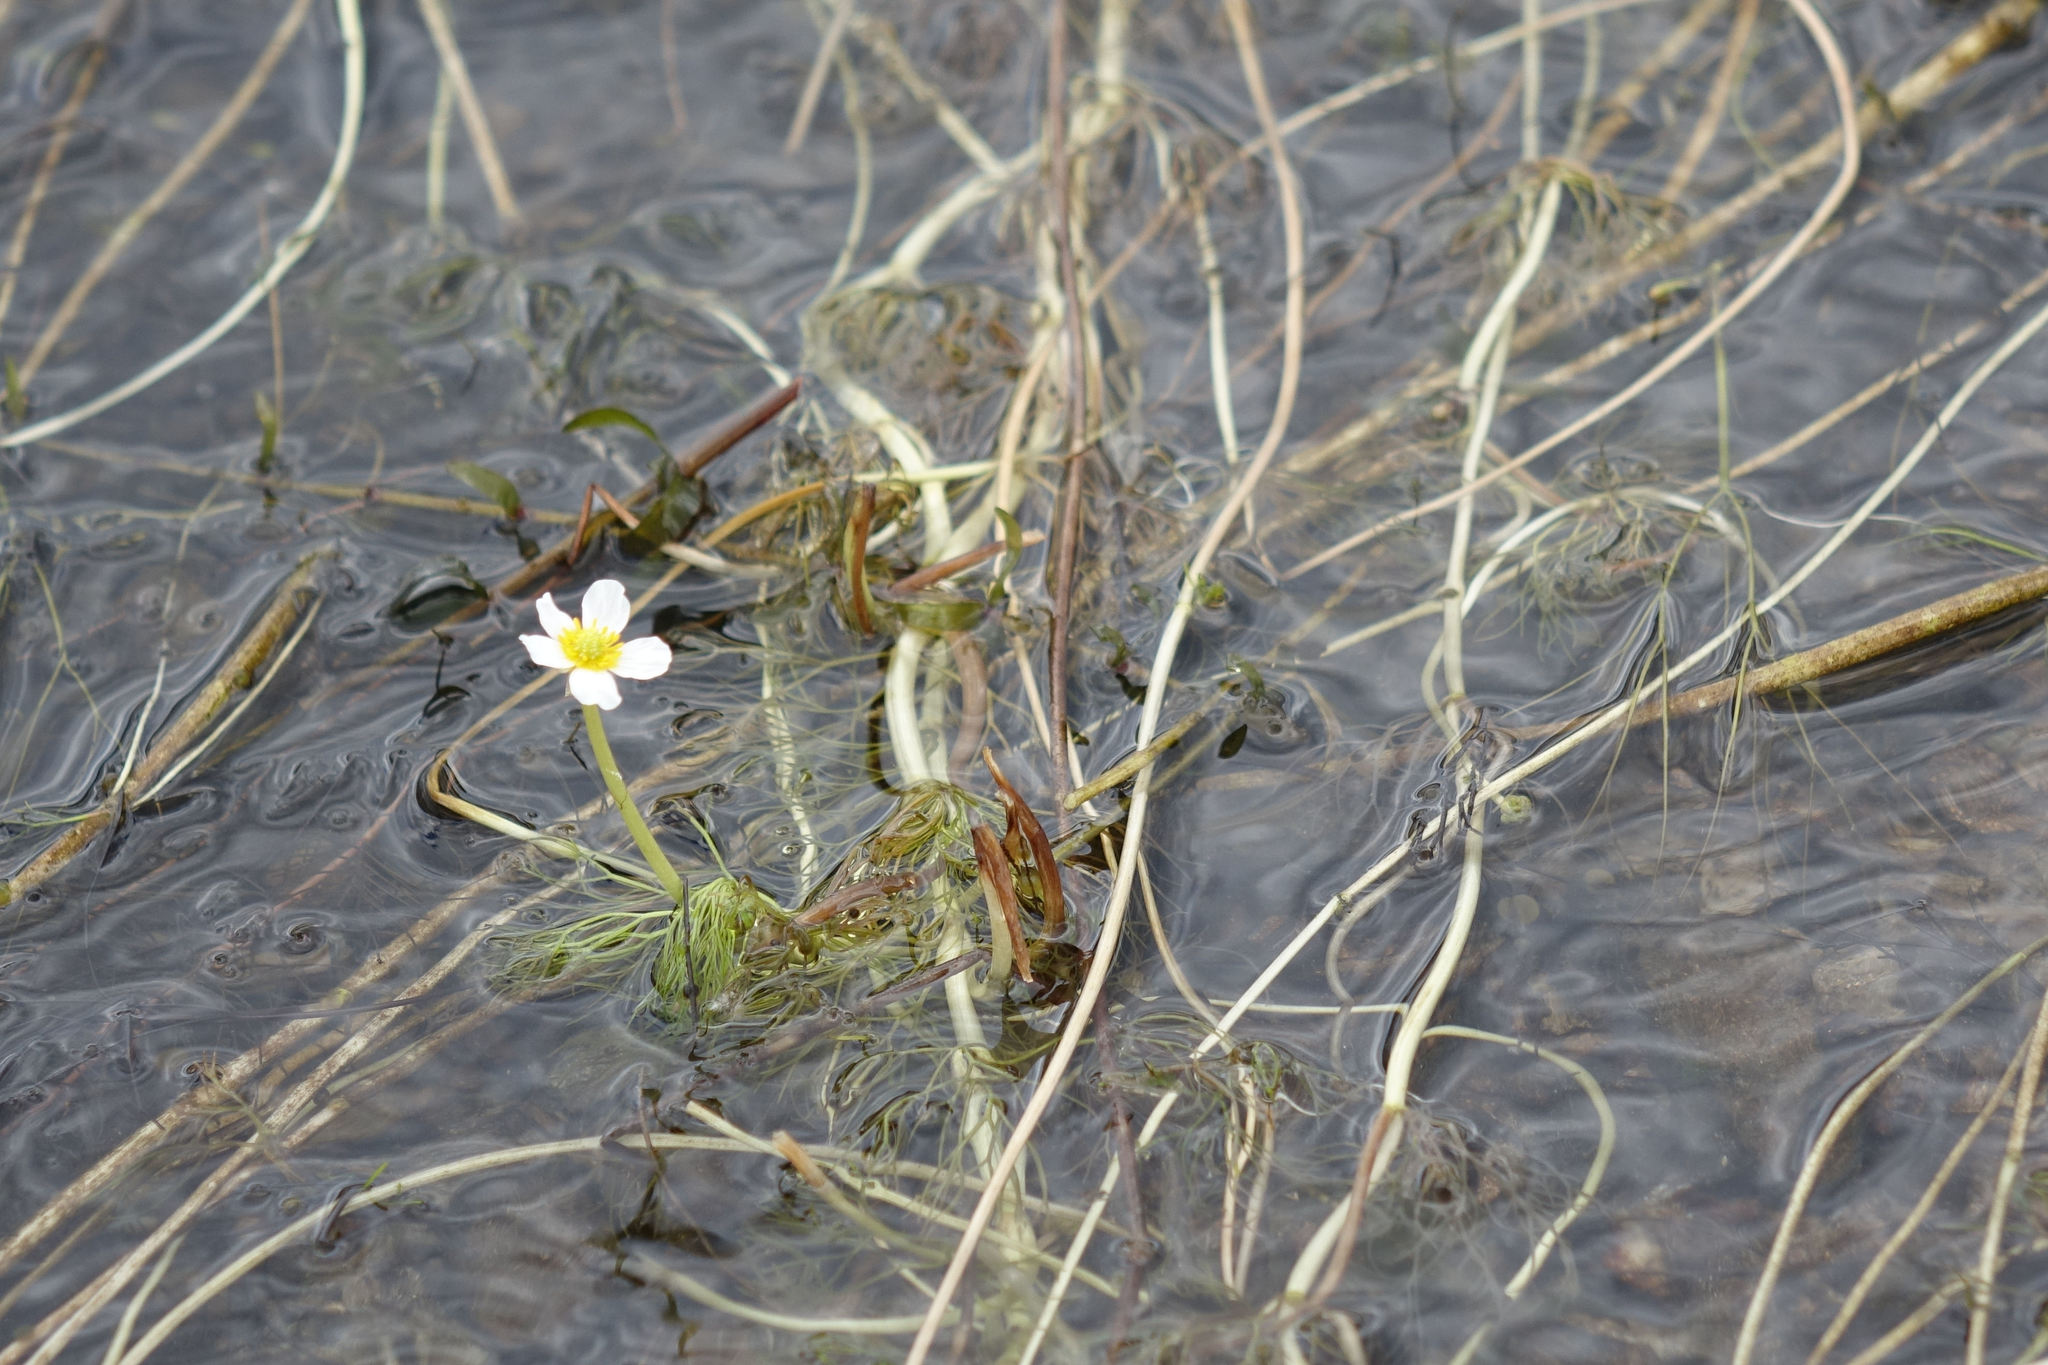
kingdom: Plantae
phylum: Tracheophyta
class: Magnoliopsida
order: Ranunculales
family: Ranunculaceae
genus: Ranunculus
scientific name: Ranunculus trichophyllus
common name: Thread-leaved water-crowfoot
